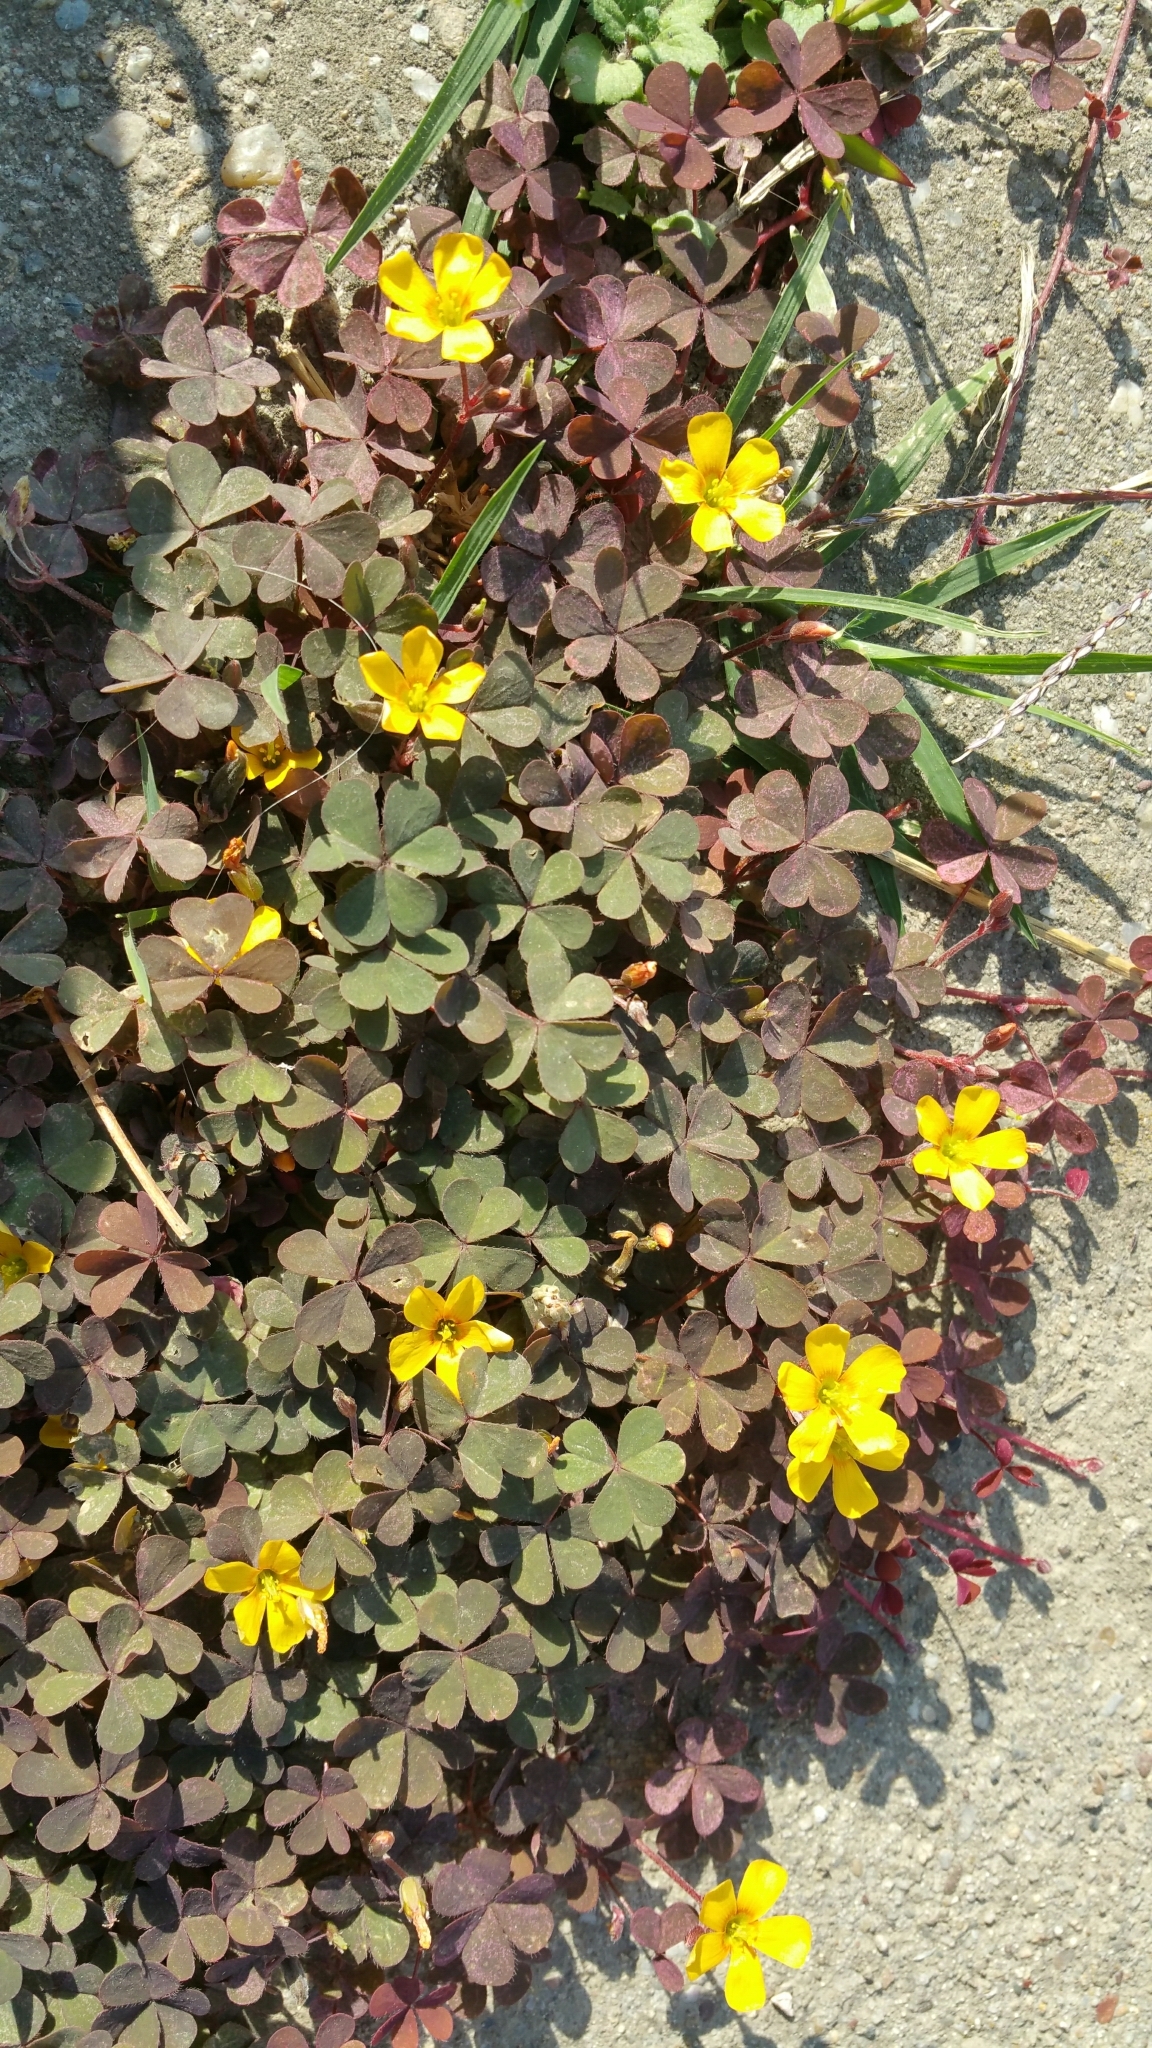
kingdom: Plantae
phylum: Tracheophyta
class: Magnoliopsida
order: Oxalidales
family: Oxalidaceae
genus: Oxalis
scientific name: Oxalis corniculata
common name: Procumbent yellow-sorrel
